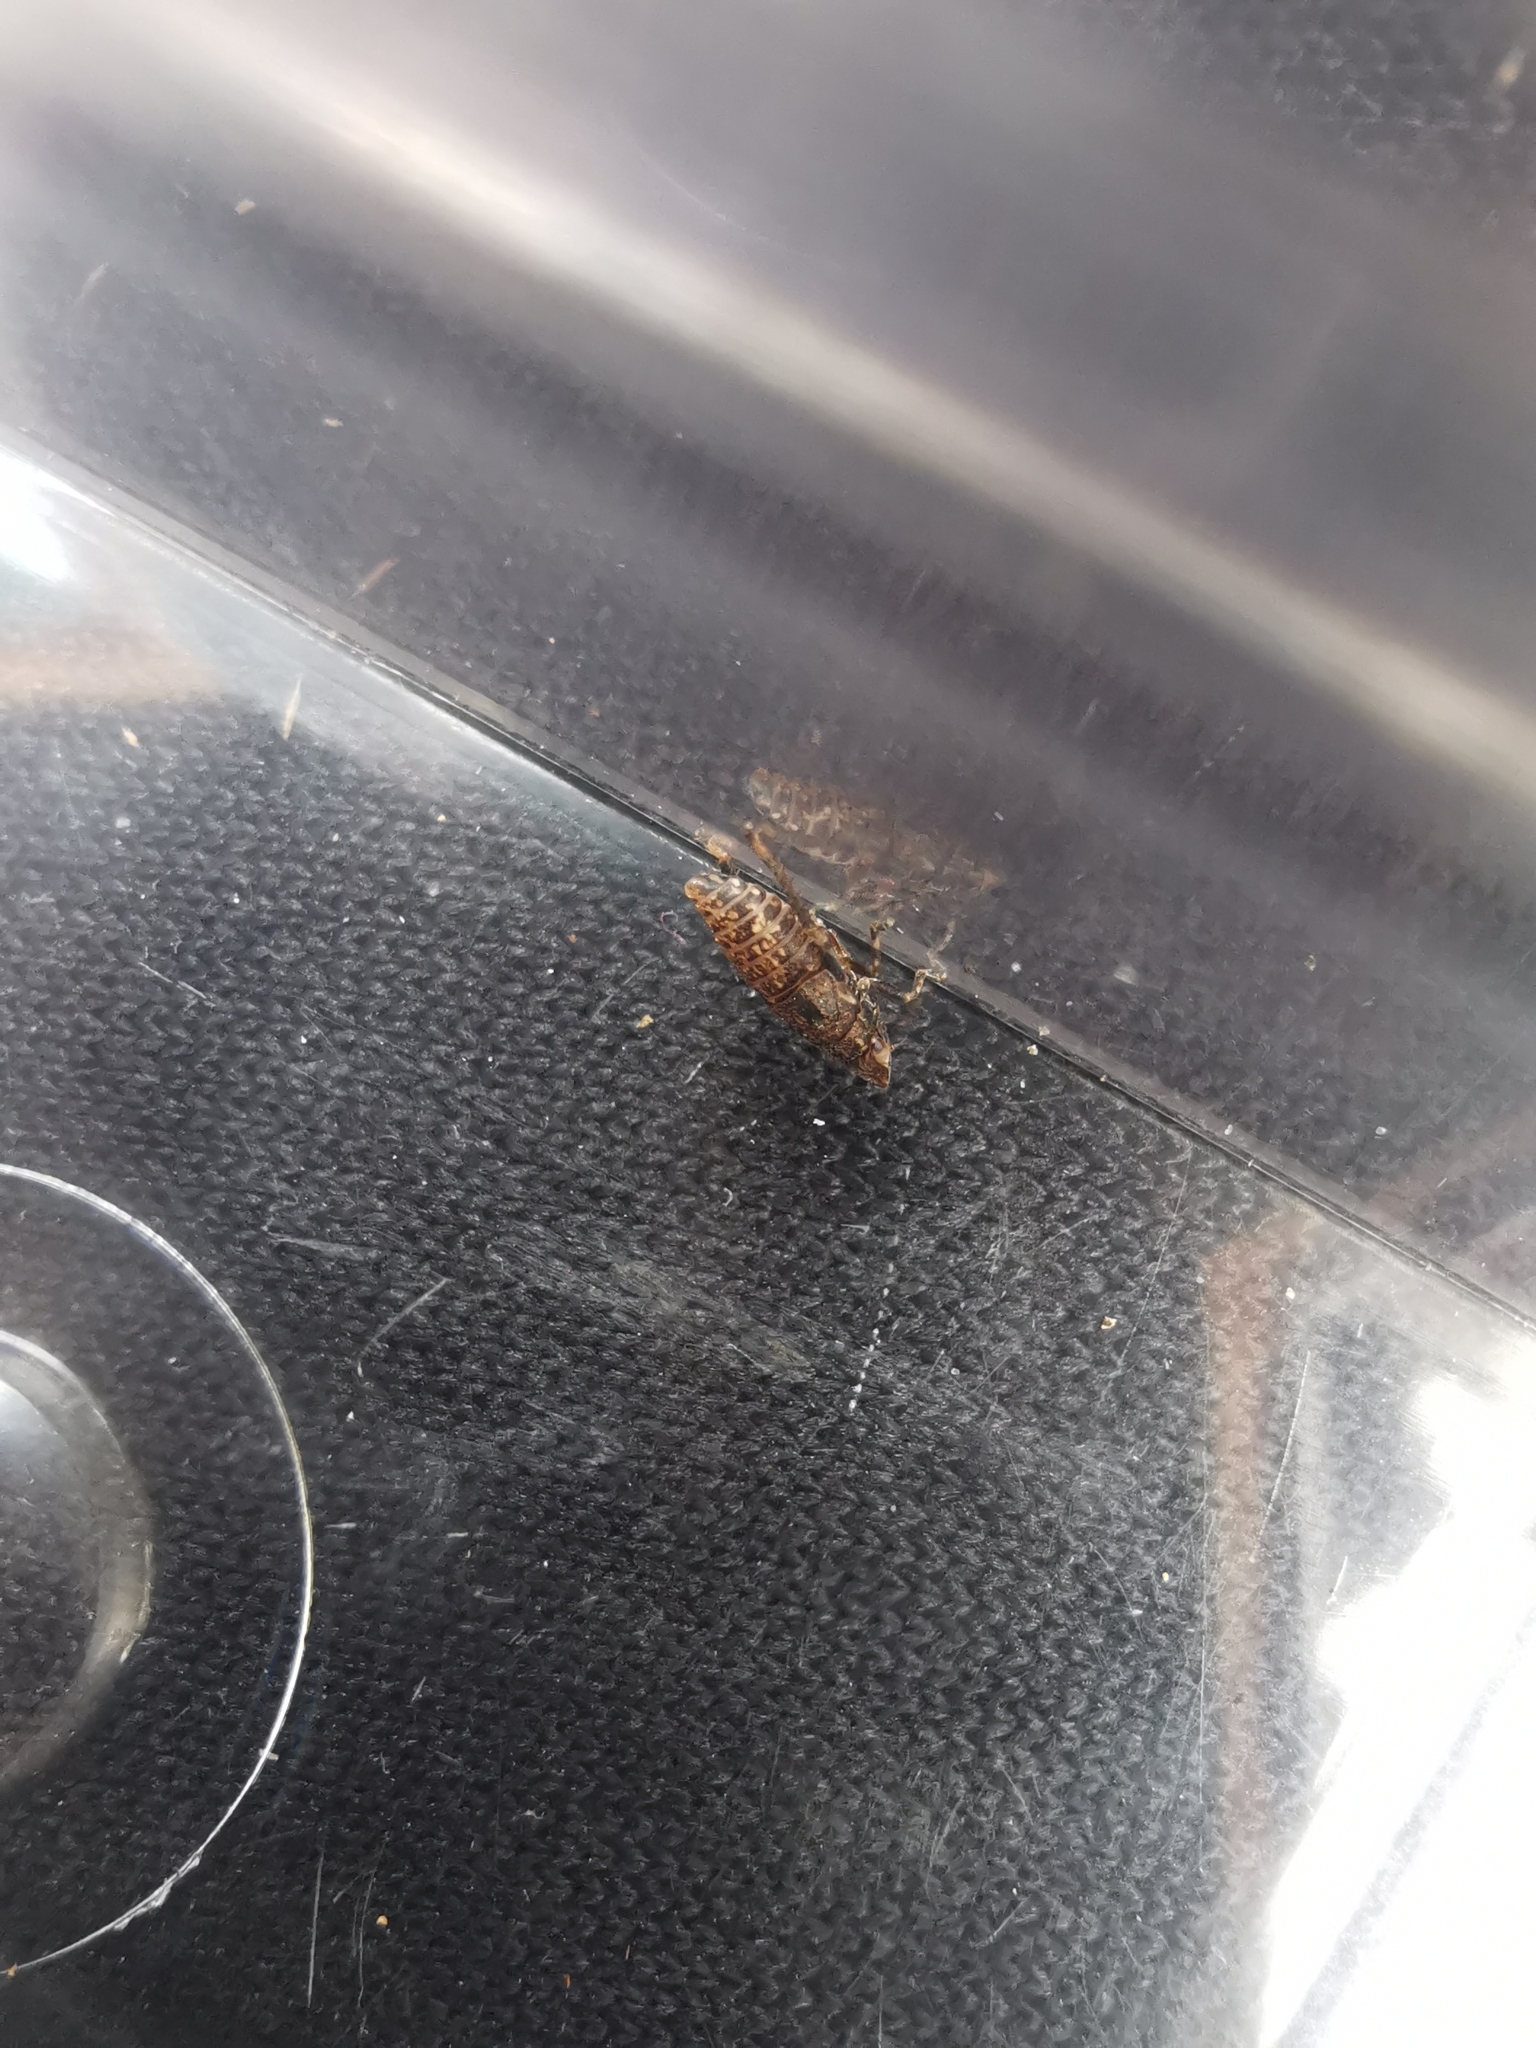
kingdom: Animalia
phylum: Arthropoda
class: Insecta
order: Hemiptera
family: Cicadellidae
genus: Errhomenus
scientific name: Errhomenus brachypterus
